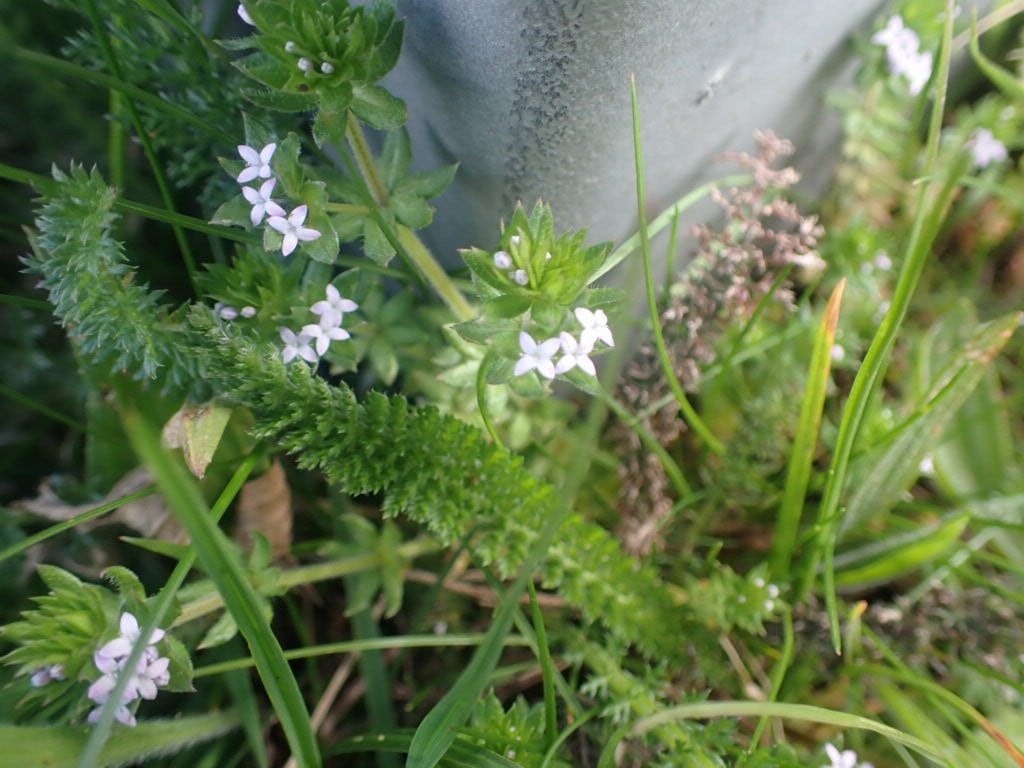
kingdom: Plantae
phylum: Tracheophyta
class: Magnoliopsida
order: Gentianales
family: Rubiaceae
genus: Sherardia
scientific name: Sherardia arvensis
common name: Field madder
